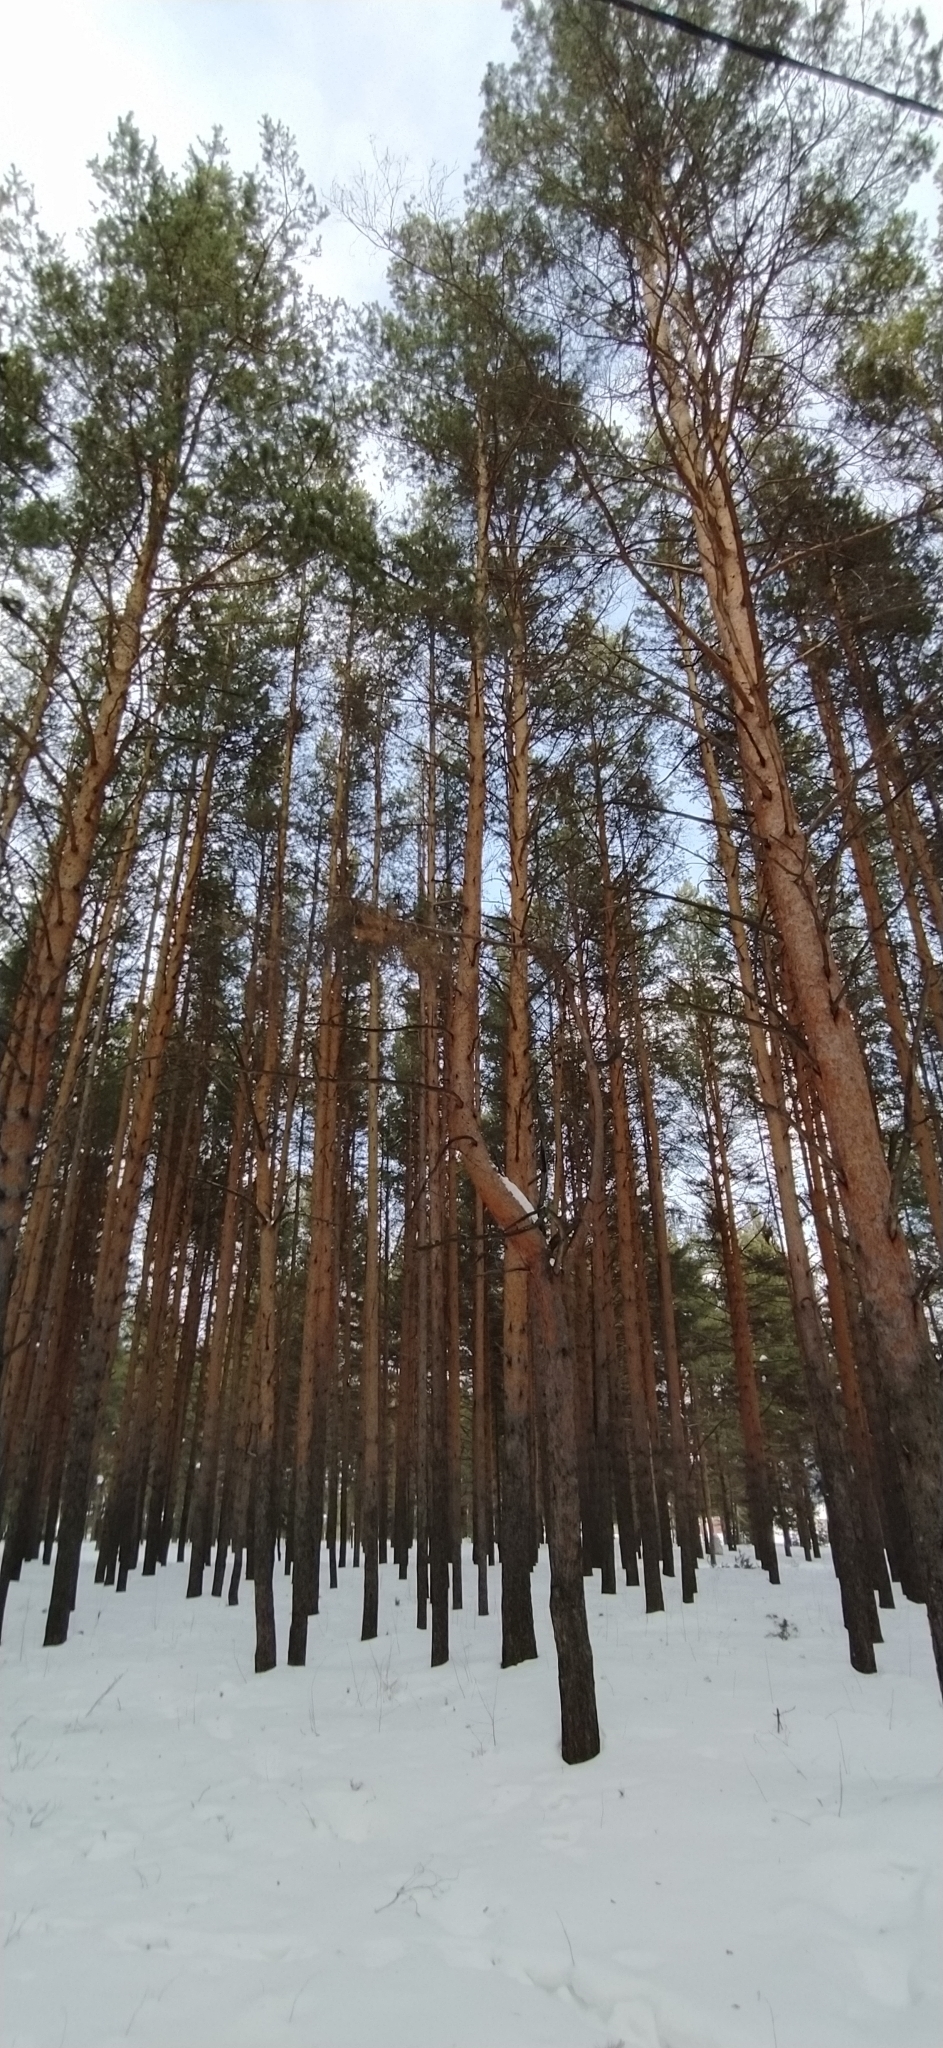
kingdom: Plantae
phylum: Tracheophyta
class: Pinopsida
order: Pinales
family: Pinaceae
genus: Pinus
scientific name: Pinus sylvestris
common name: Scots pine
